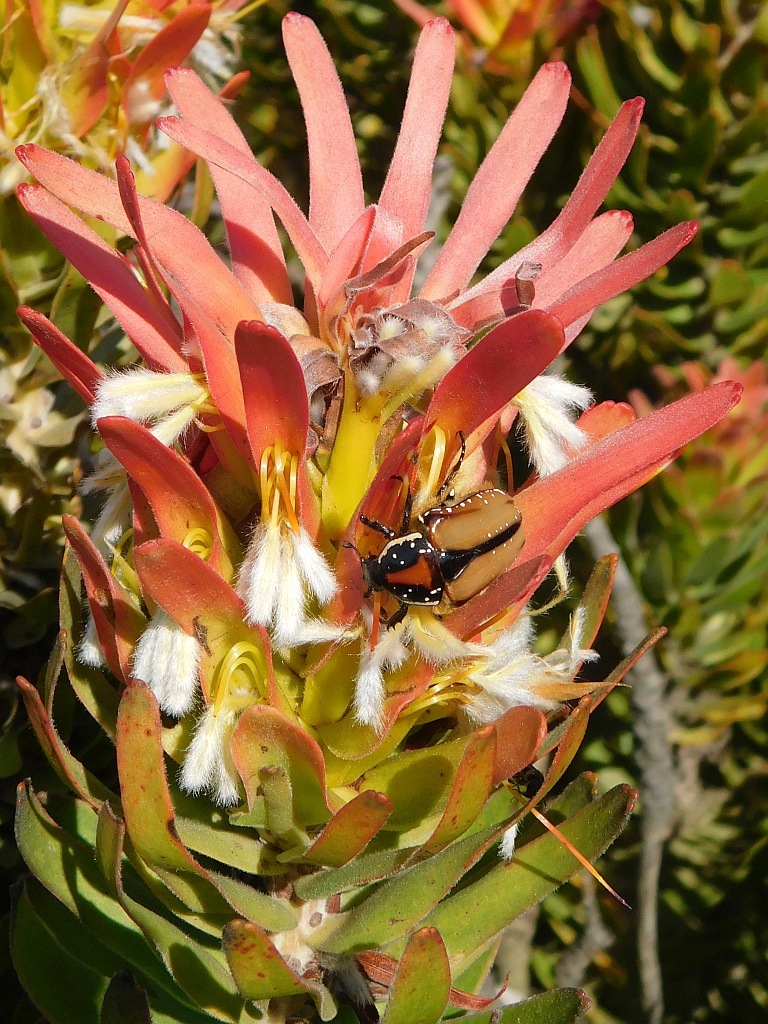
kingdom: Plantae
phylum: Tracheophyta
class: Magnoliopsida
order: Proteales
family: Proteaceae
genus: Mimetes
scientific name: Mimetes cucullatus
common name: Common pagoda
